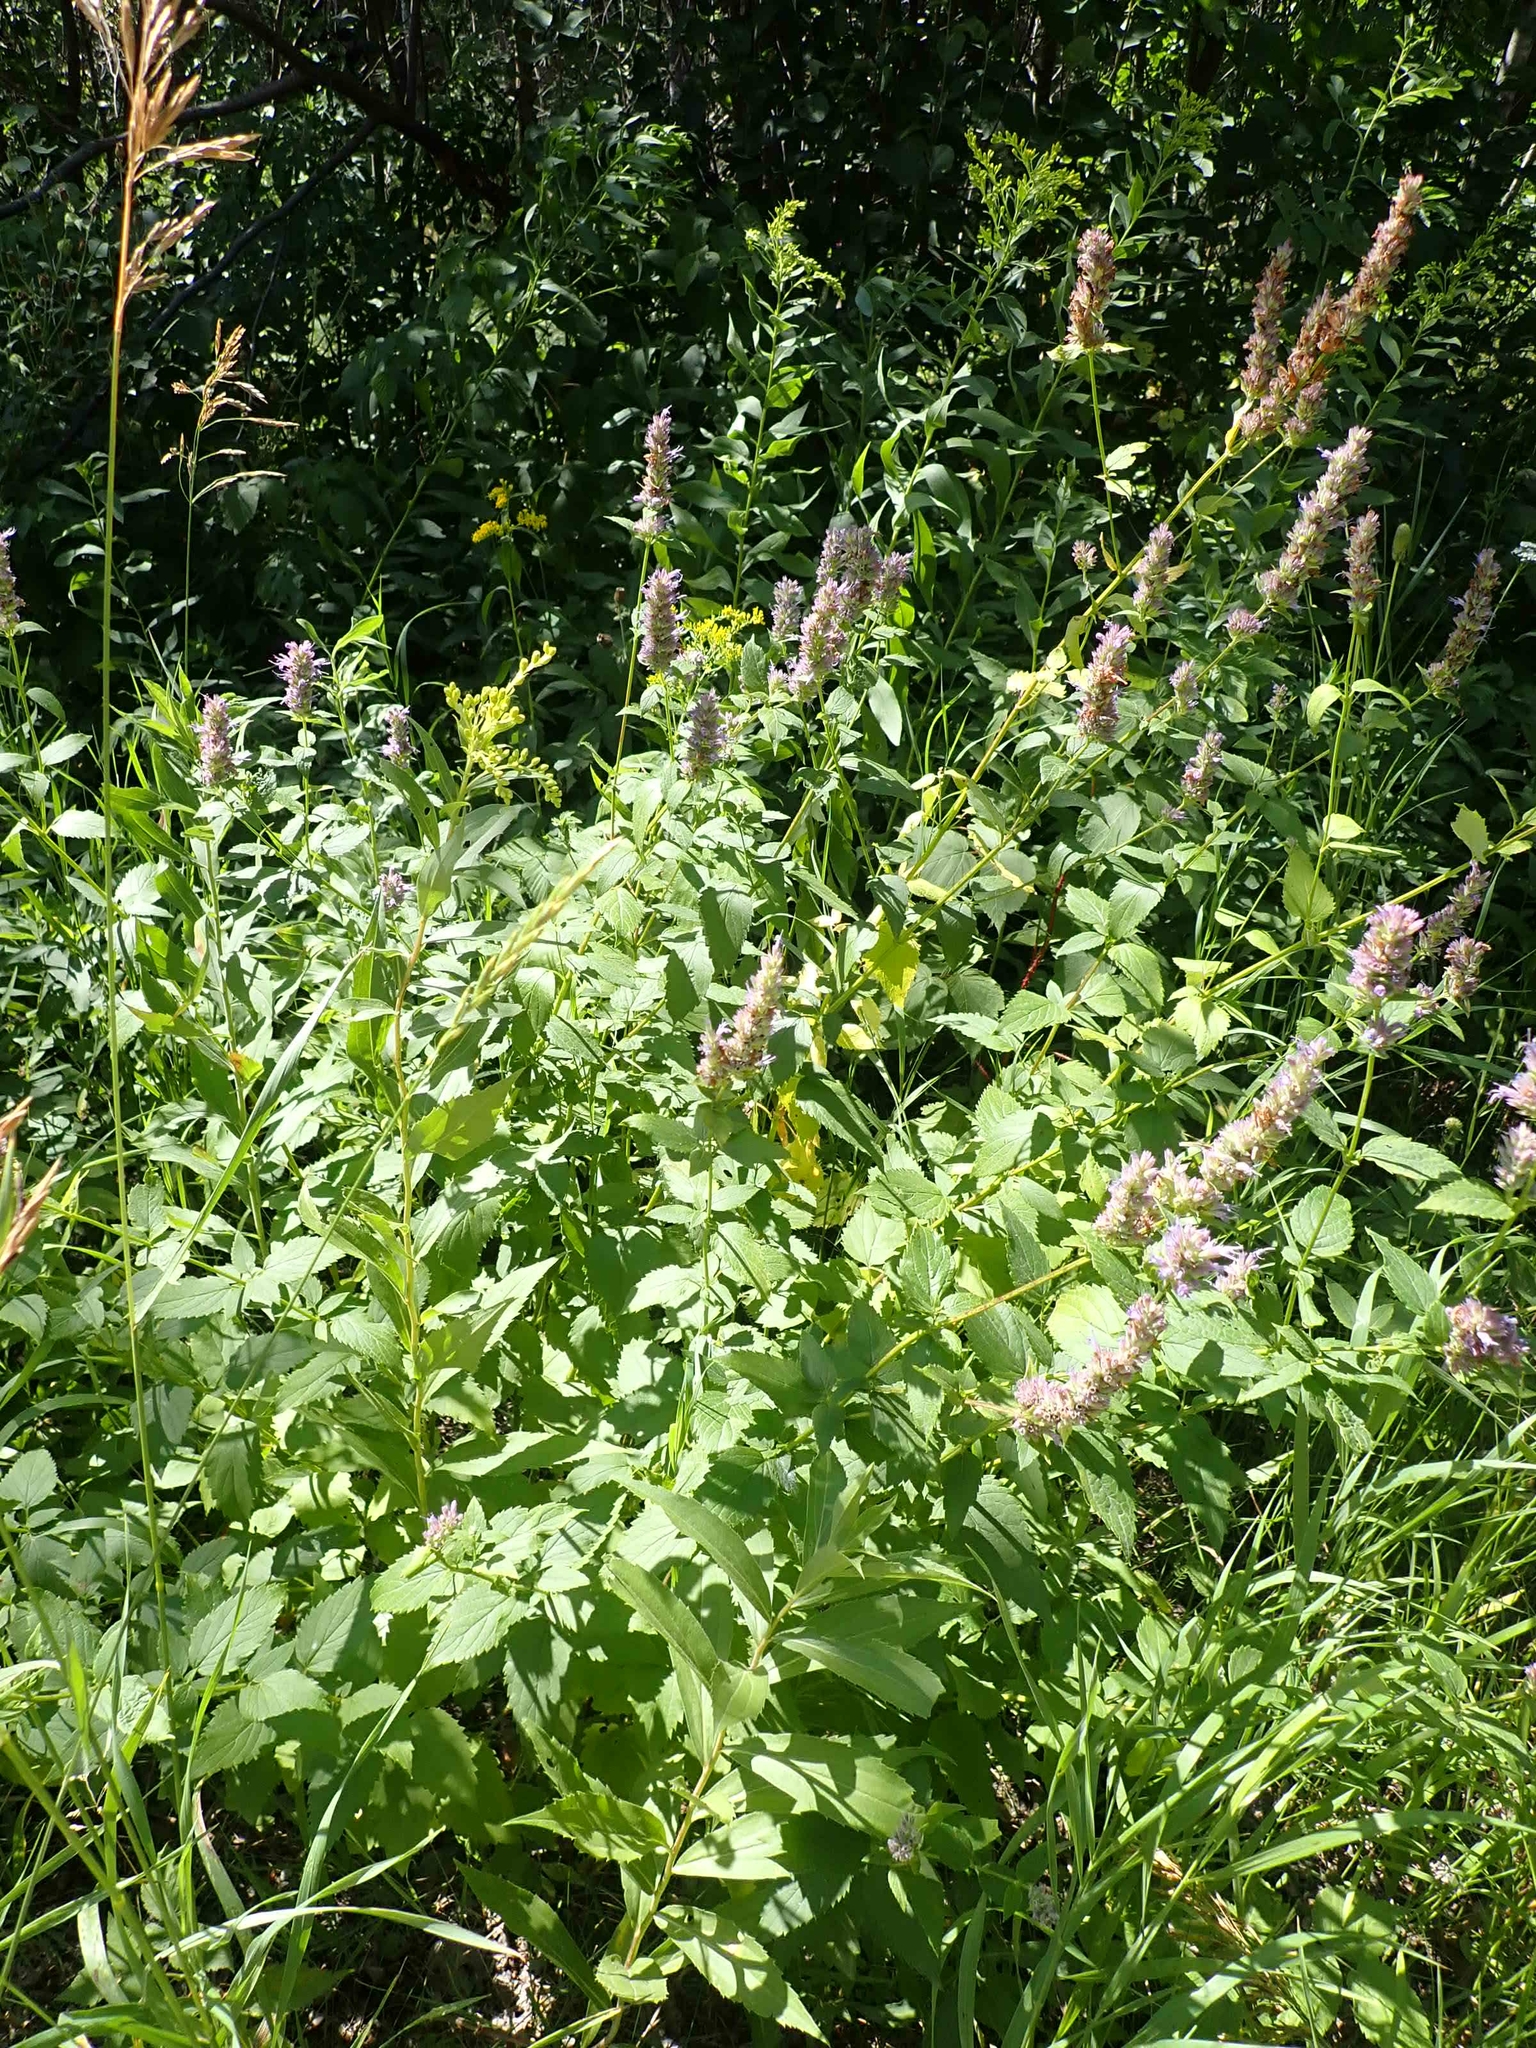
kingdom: Plantae
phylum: Tracheophyta
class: Magnoliopsida
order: Lamiales
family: Lamiaceae
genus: Agastache
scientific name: Agastache foeniculum
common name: Anise hyssop
